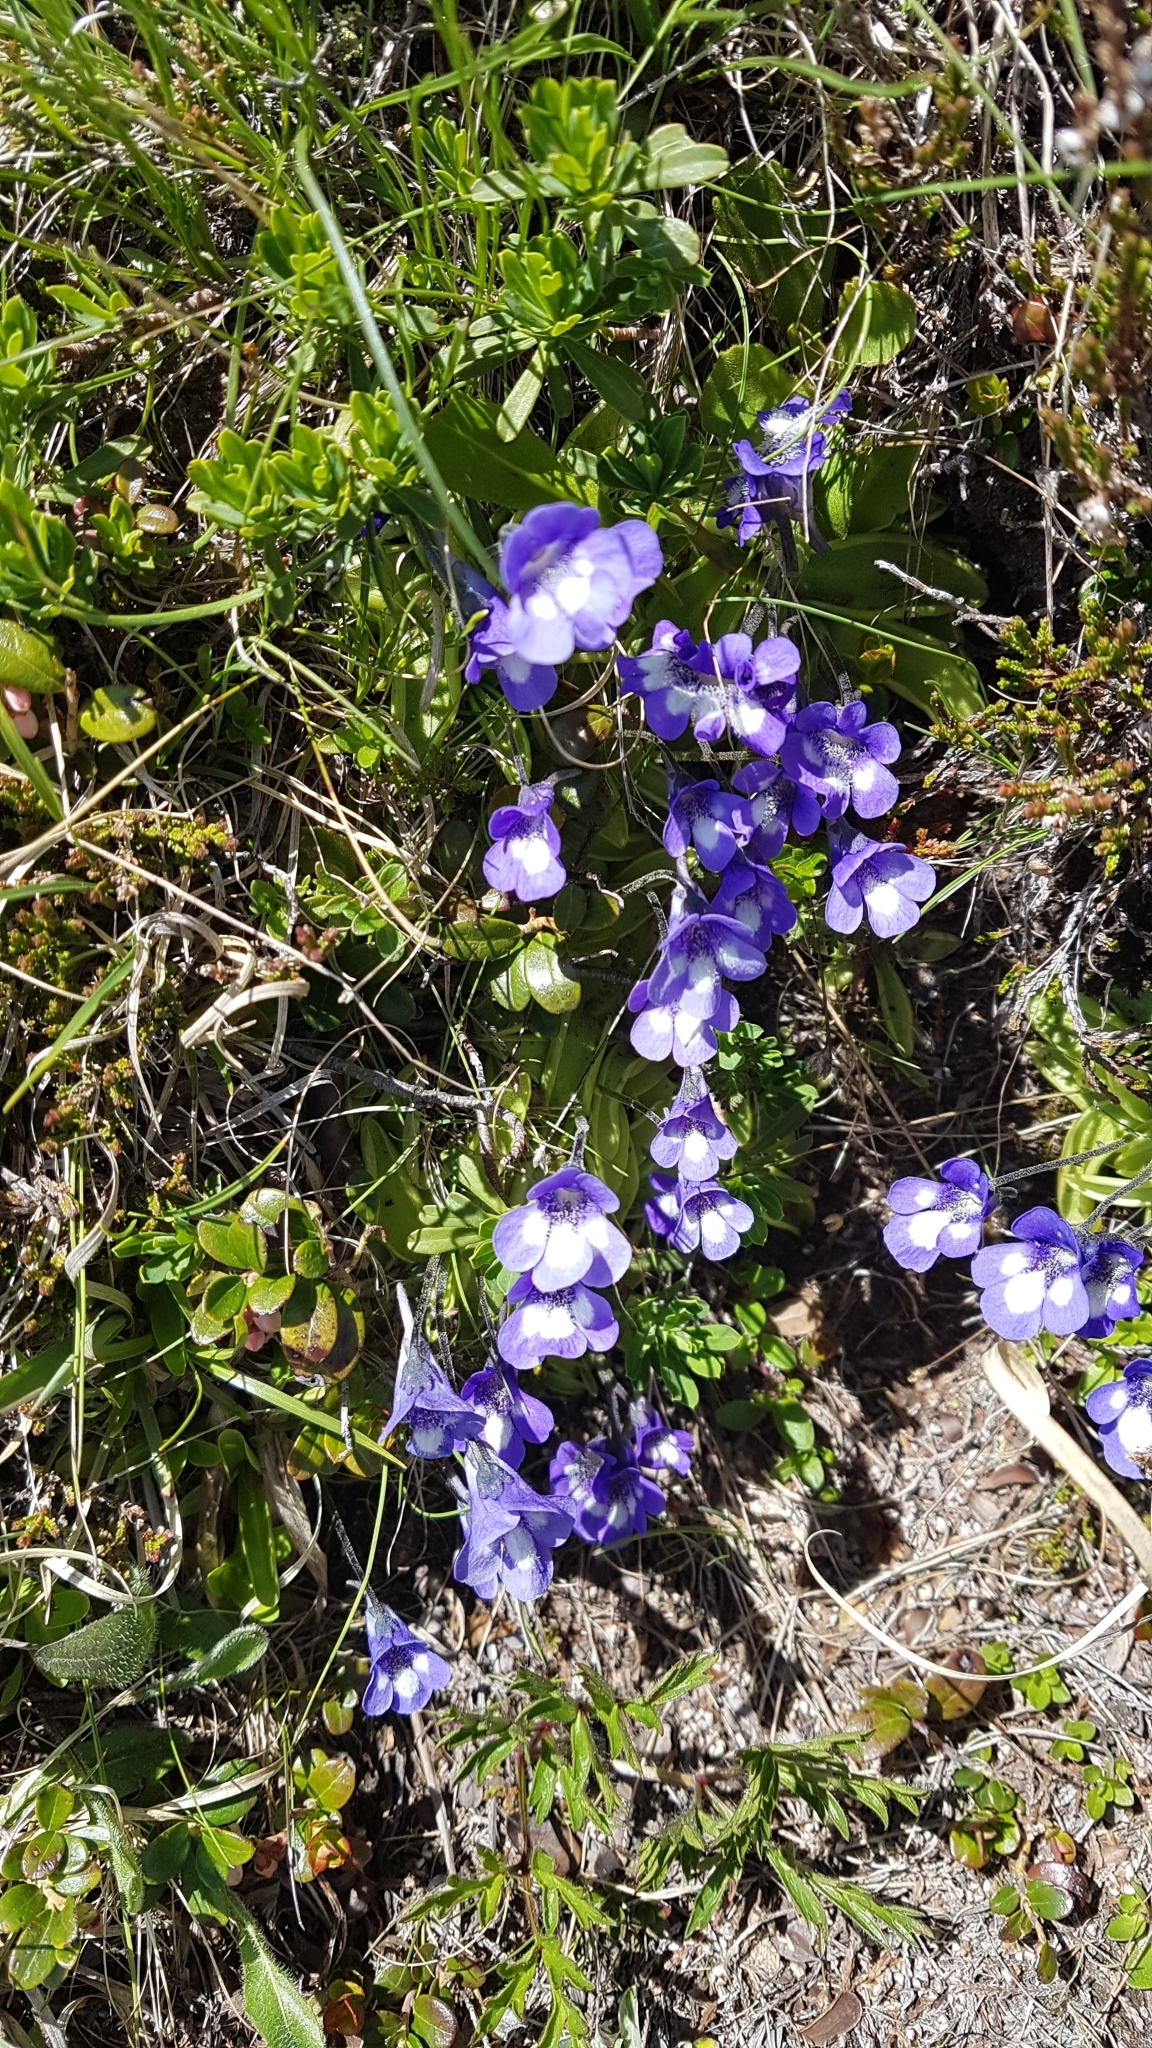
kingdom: Plantae
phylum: Tracheophyta
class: Magnoliopsida
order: Lamiales
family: Lentibulariaceae
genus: Pinguicula
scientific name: Pinguicula leptoceras
